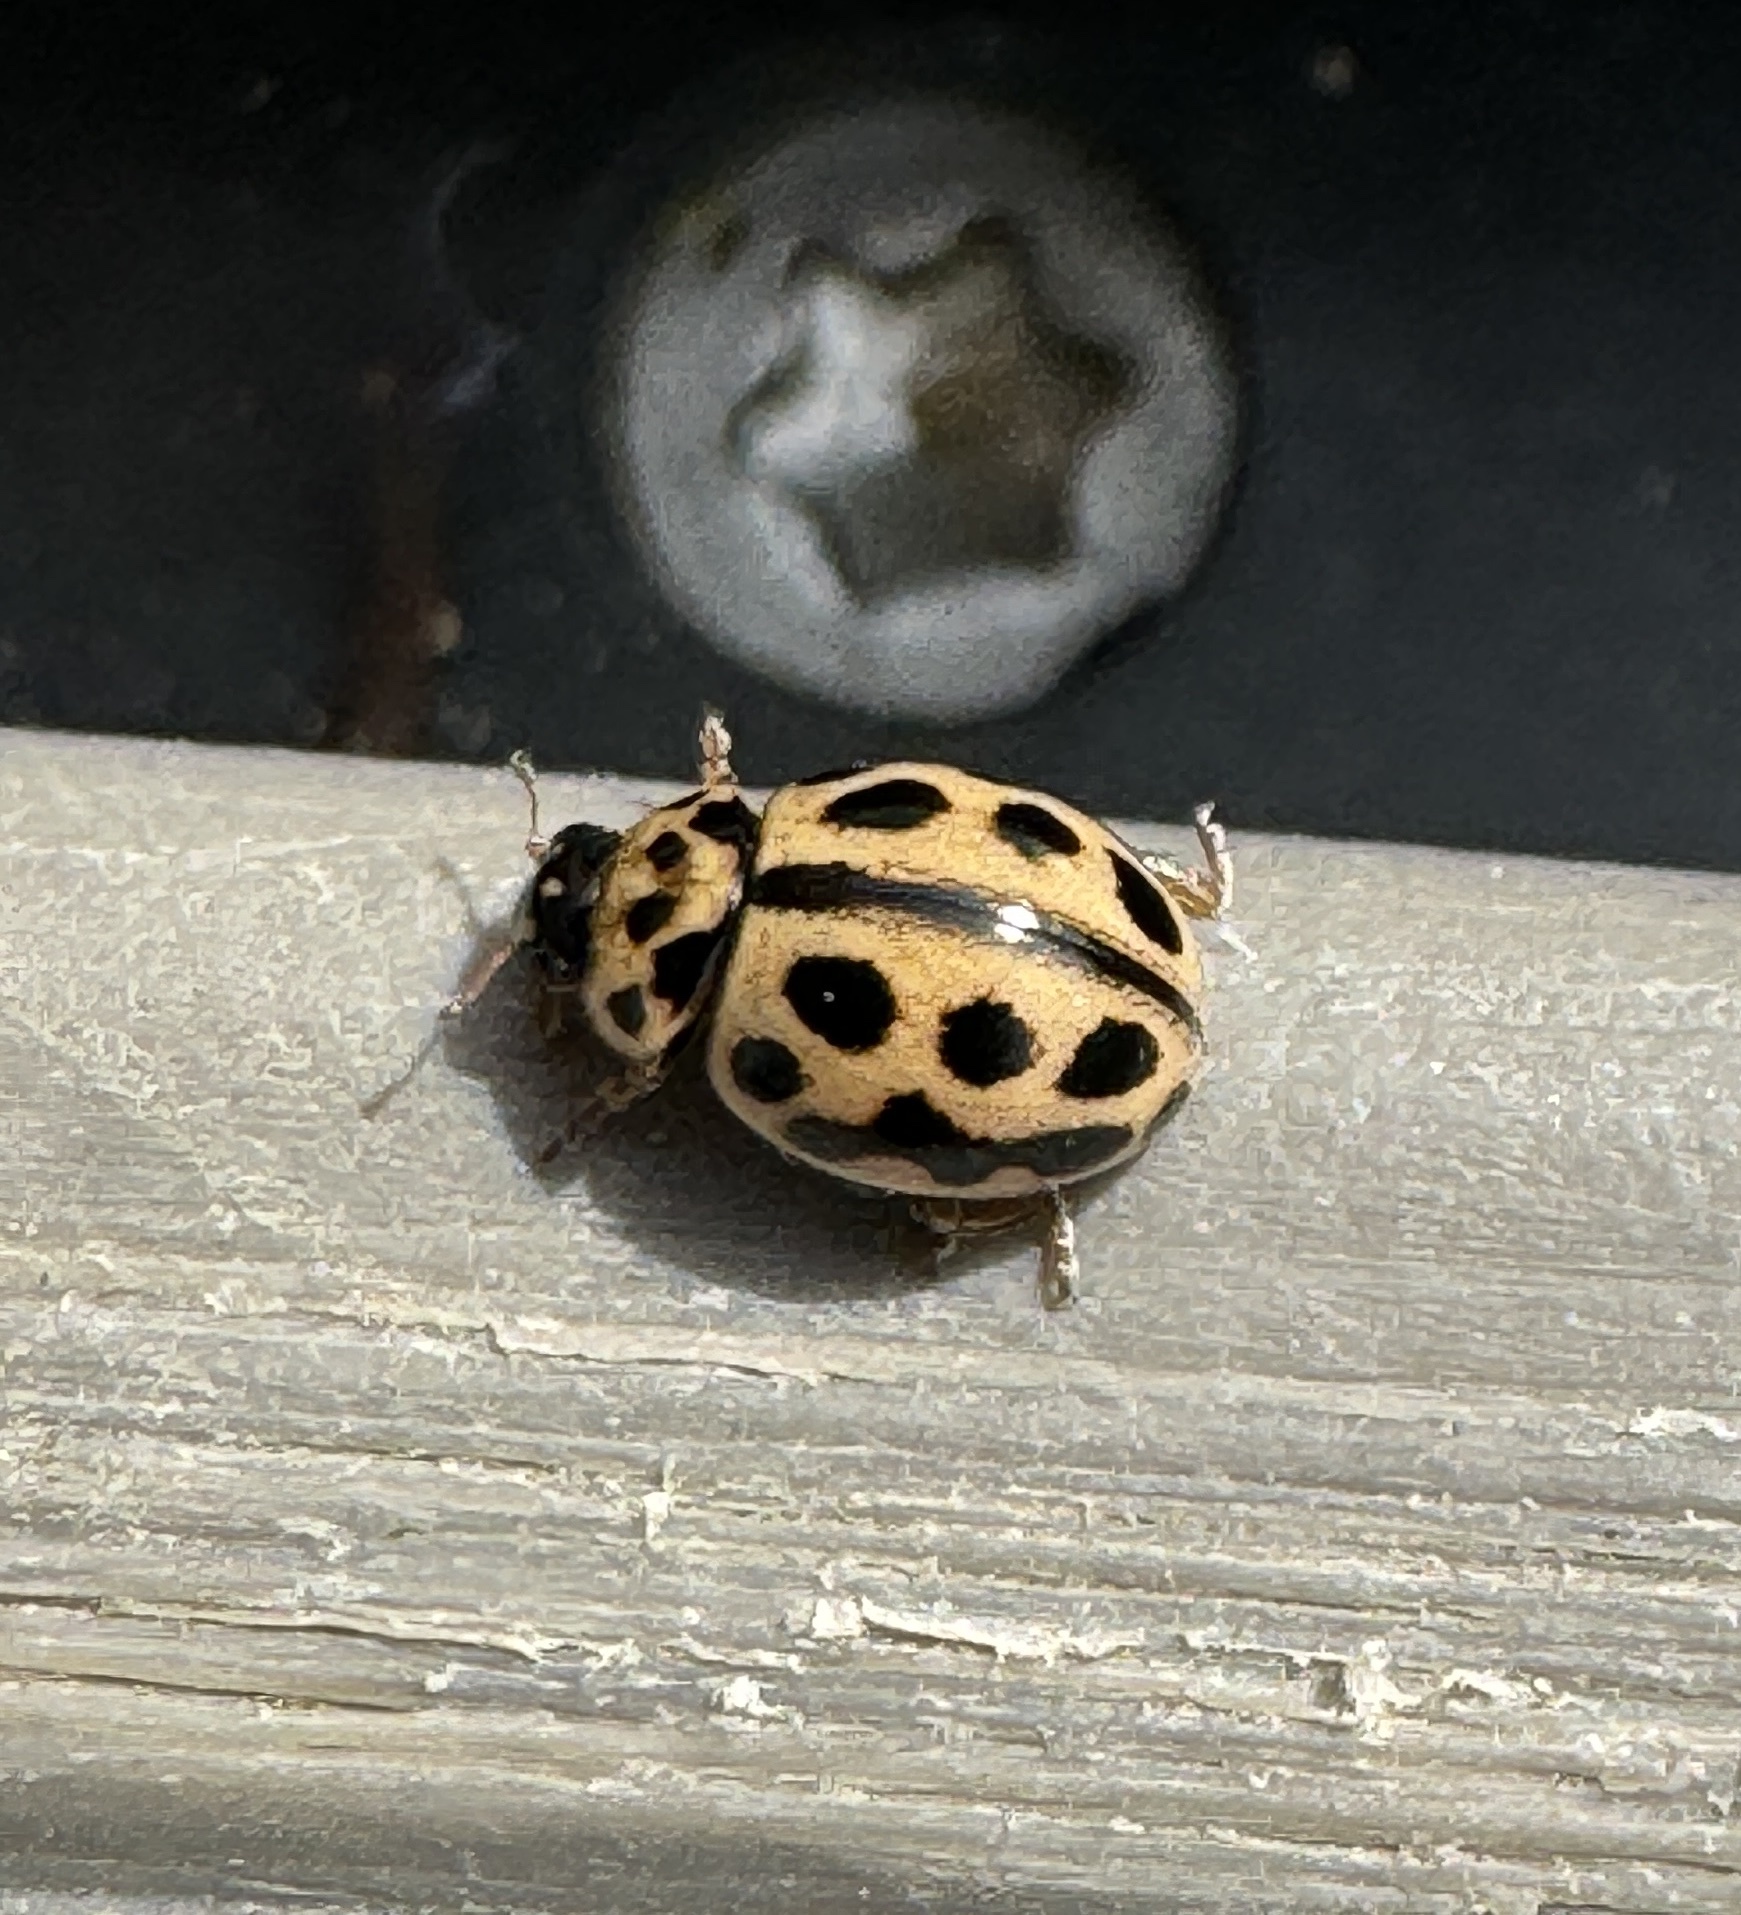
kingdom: Animalia
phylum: Arthropoda
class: Insecta
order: Coleoptera
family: Coccinellidae
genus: Tytthaspis
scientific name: Tytthaspis sedecimpunctata
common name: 16-spot ladybird
